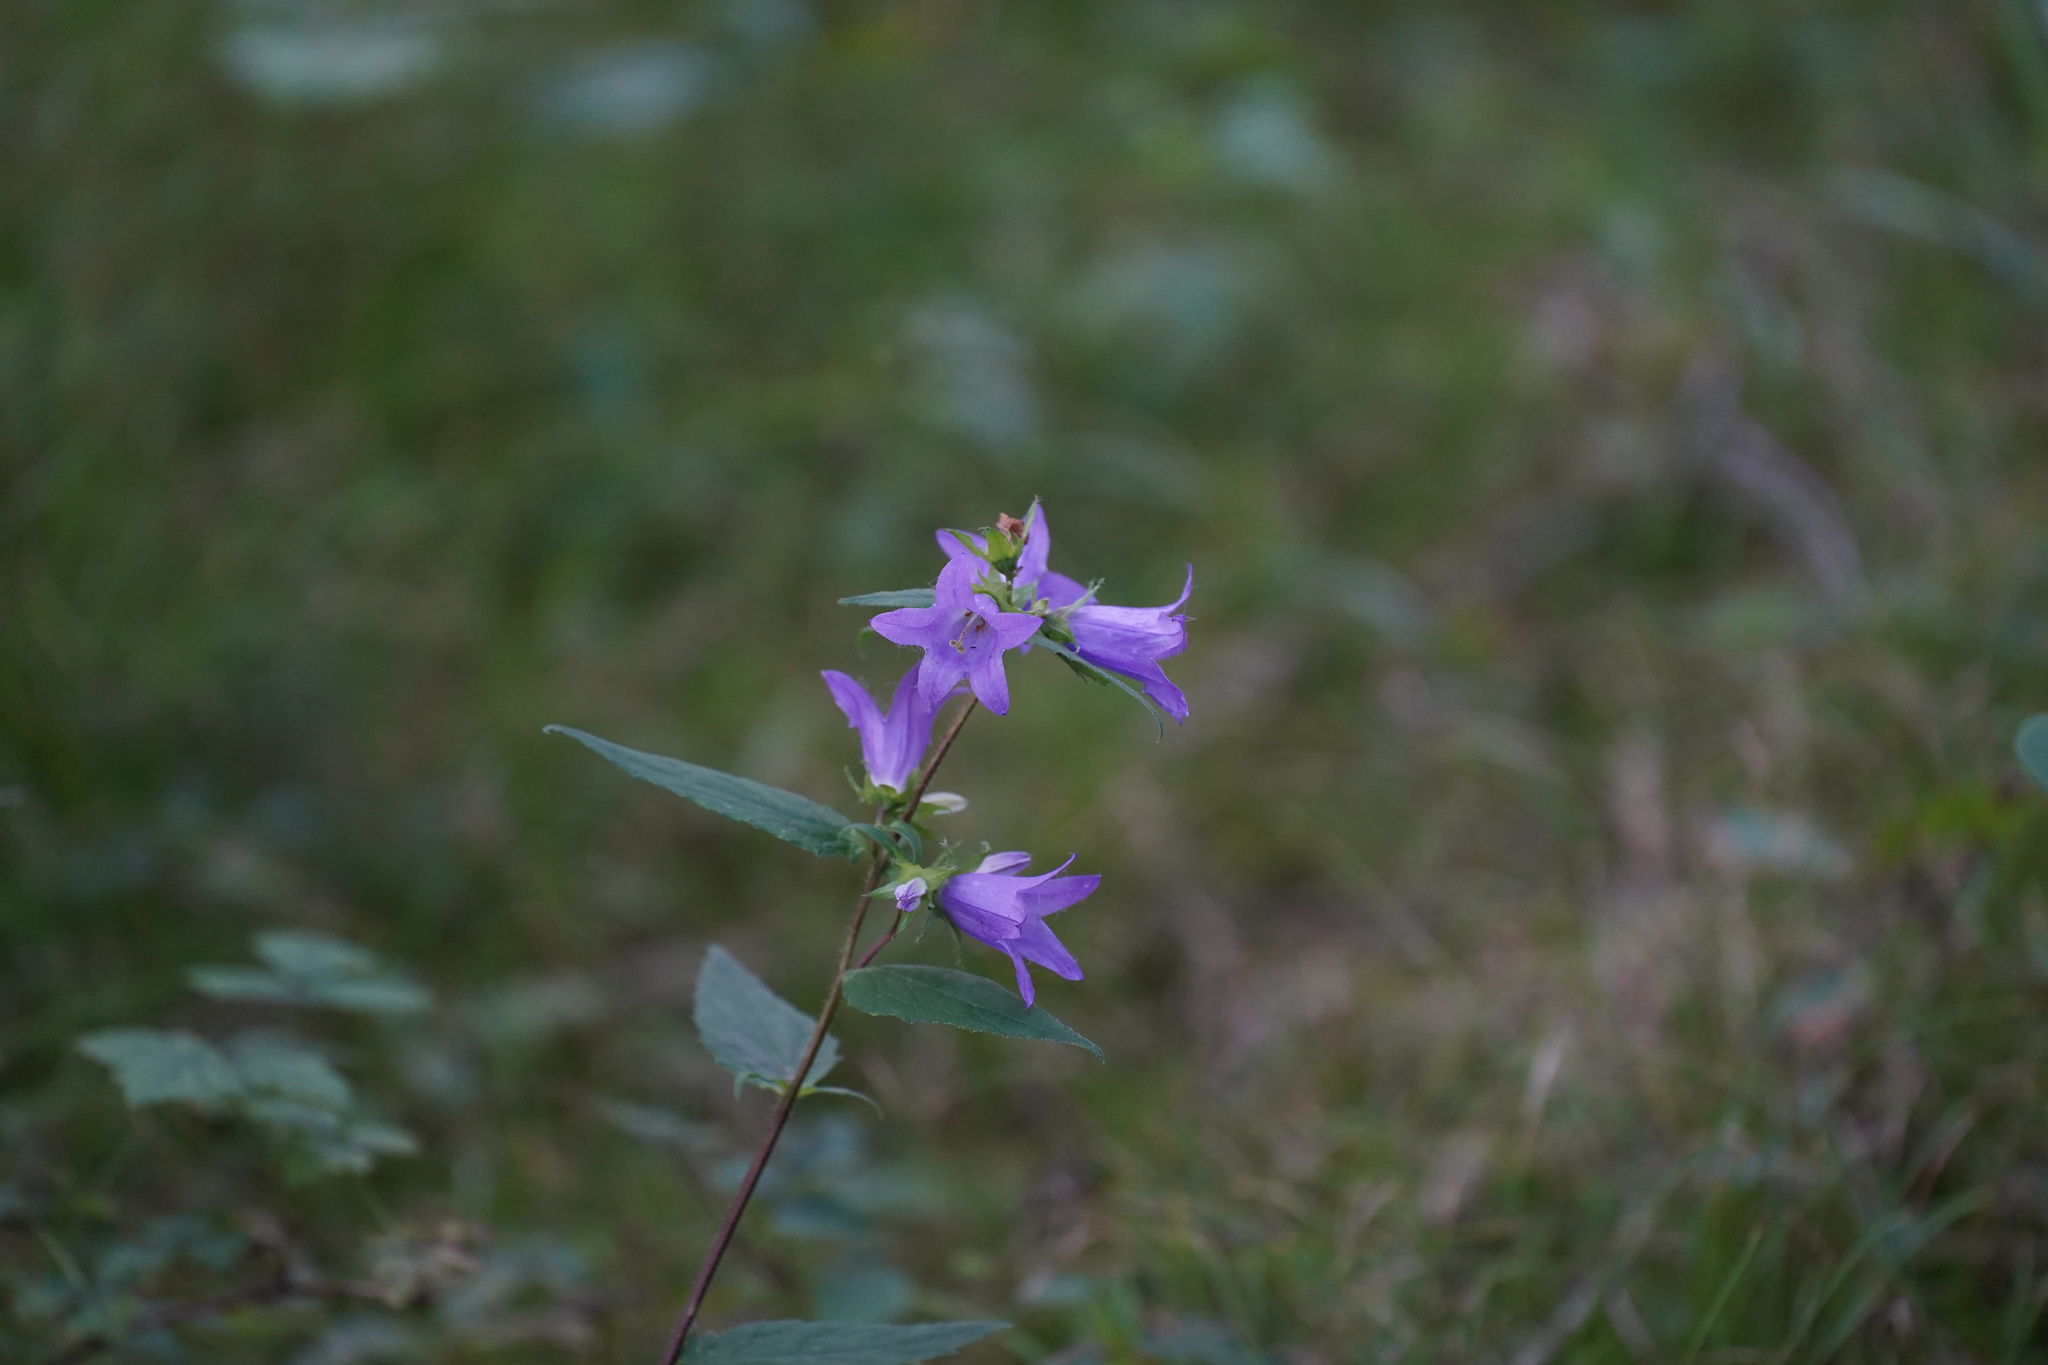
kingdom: Plantae
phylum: Tracheophyta
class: Magnoliopsida
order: Asterales
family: Campanulaceae
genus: Campanula
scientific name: Campanula trachelium
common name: Nettle-leaved bellflower
